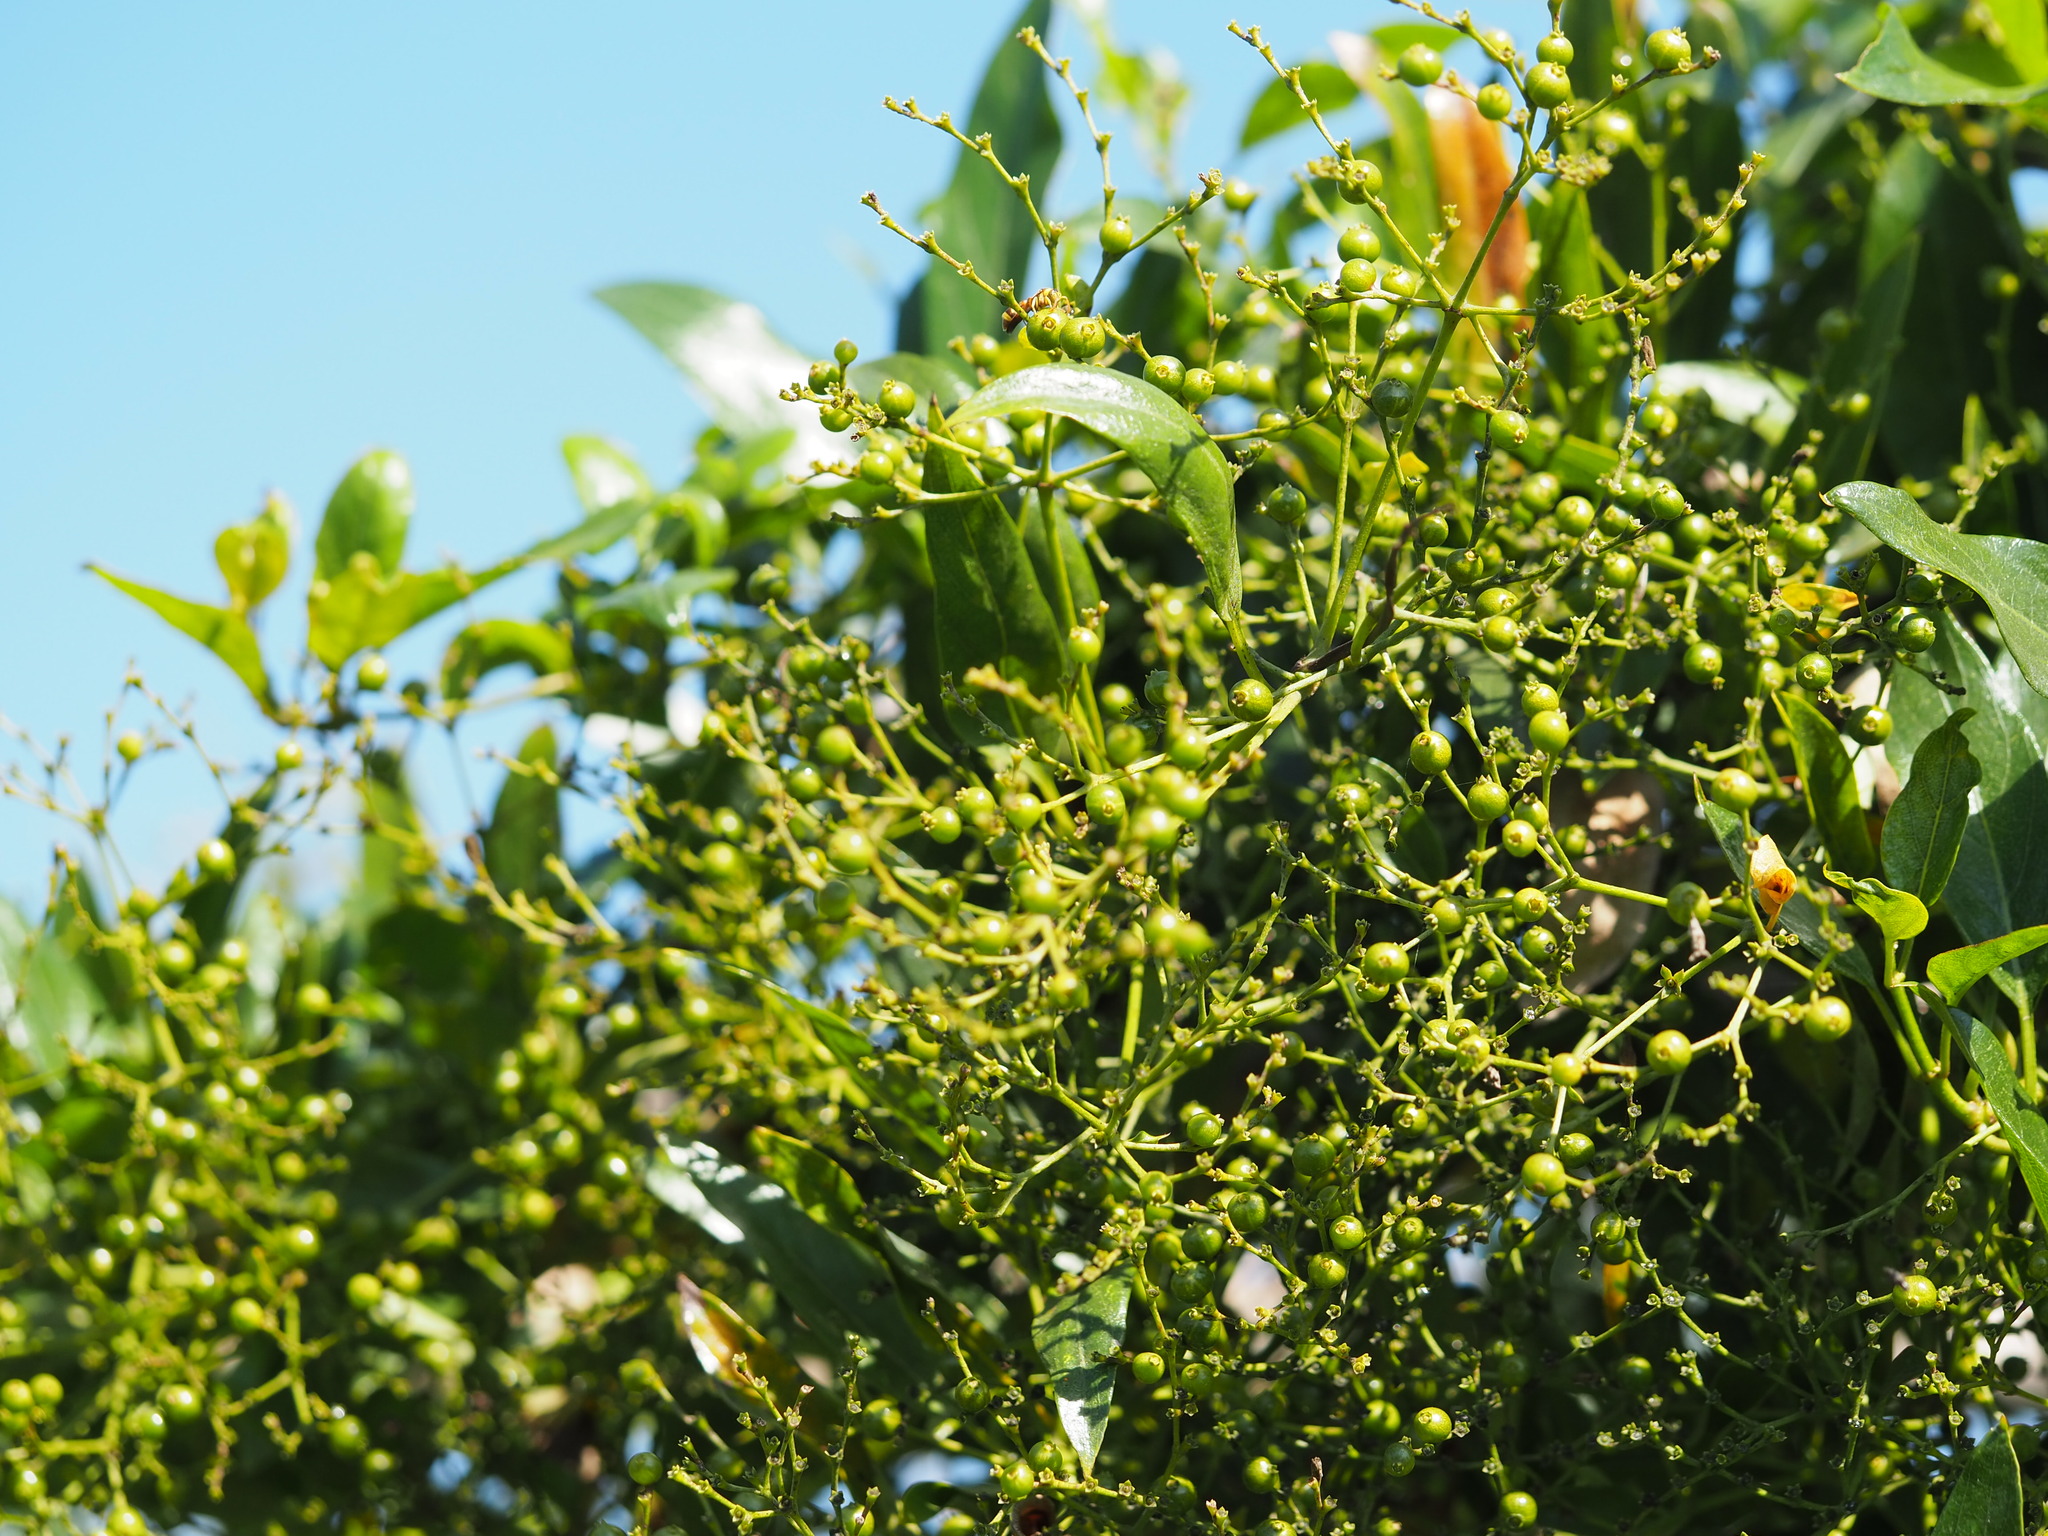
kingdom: Plantae
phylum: Tracheophyta
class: Magnoliopsida
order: Gentianales
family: Rubiaceae
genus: Paederia
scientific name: Paederia foetida
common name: Stinkvine
